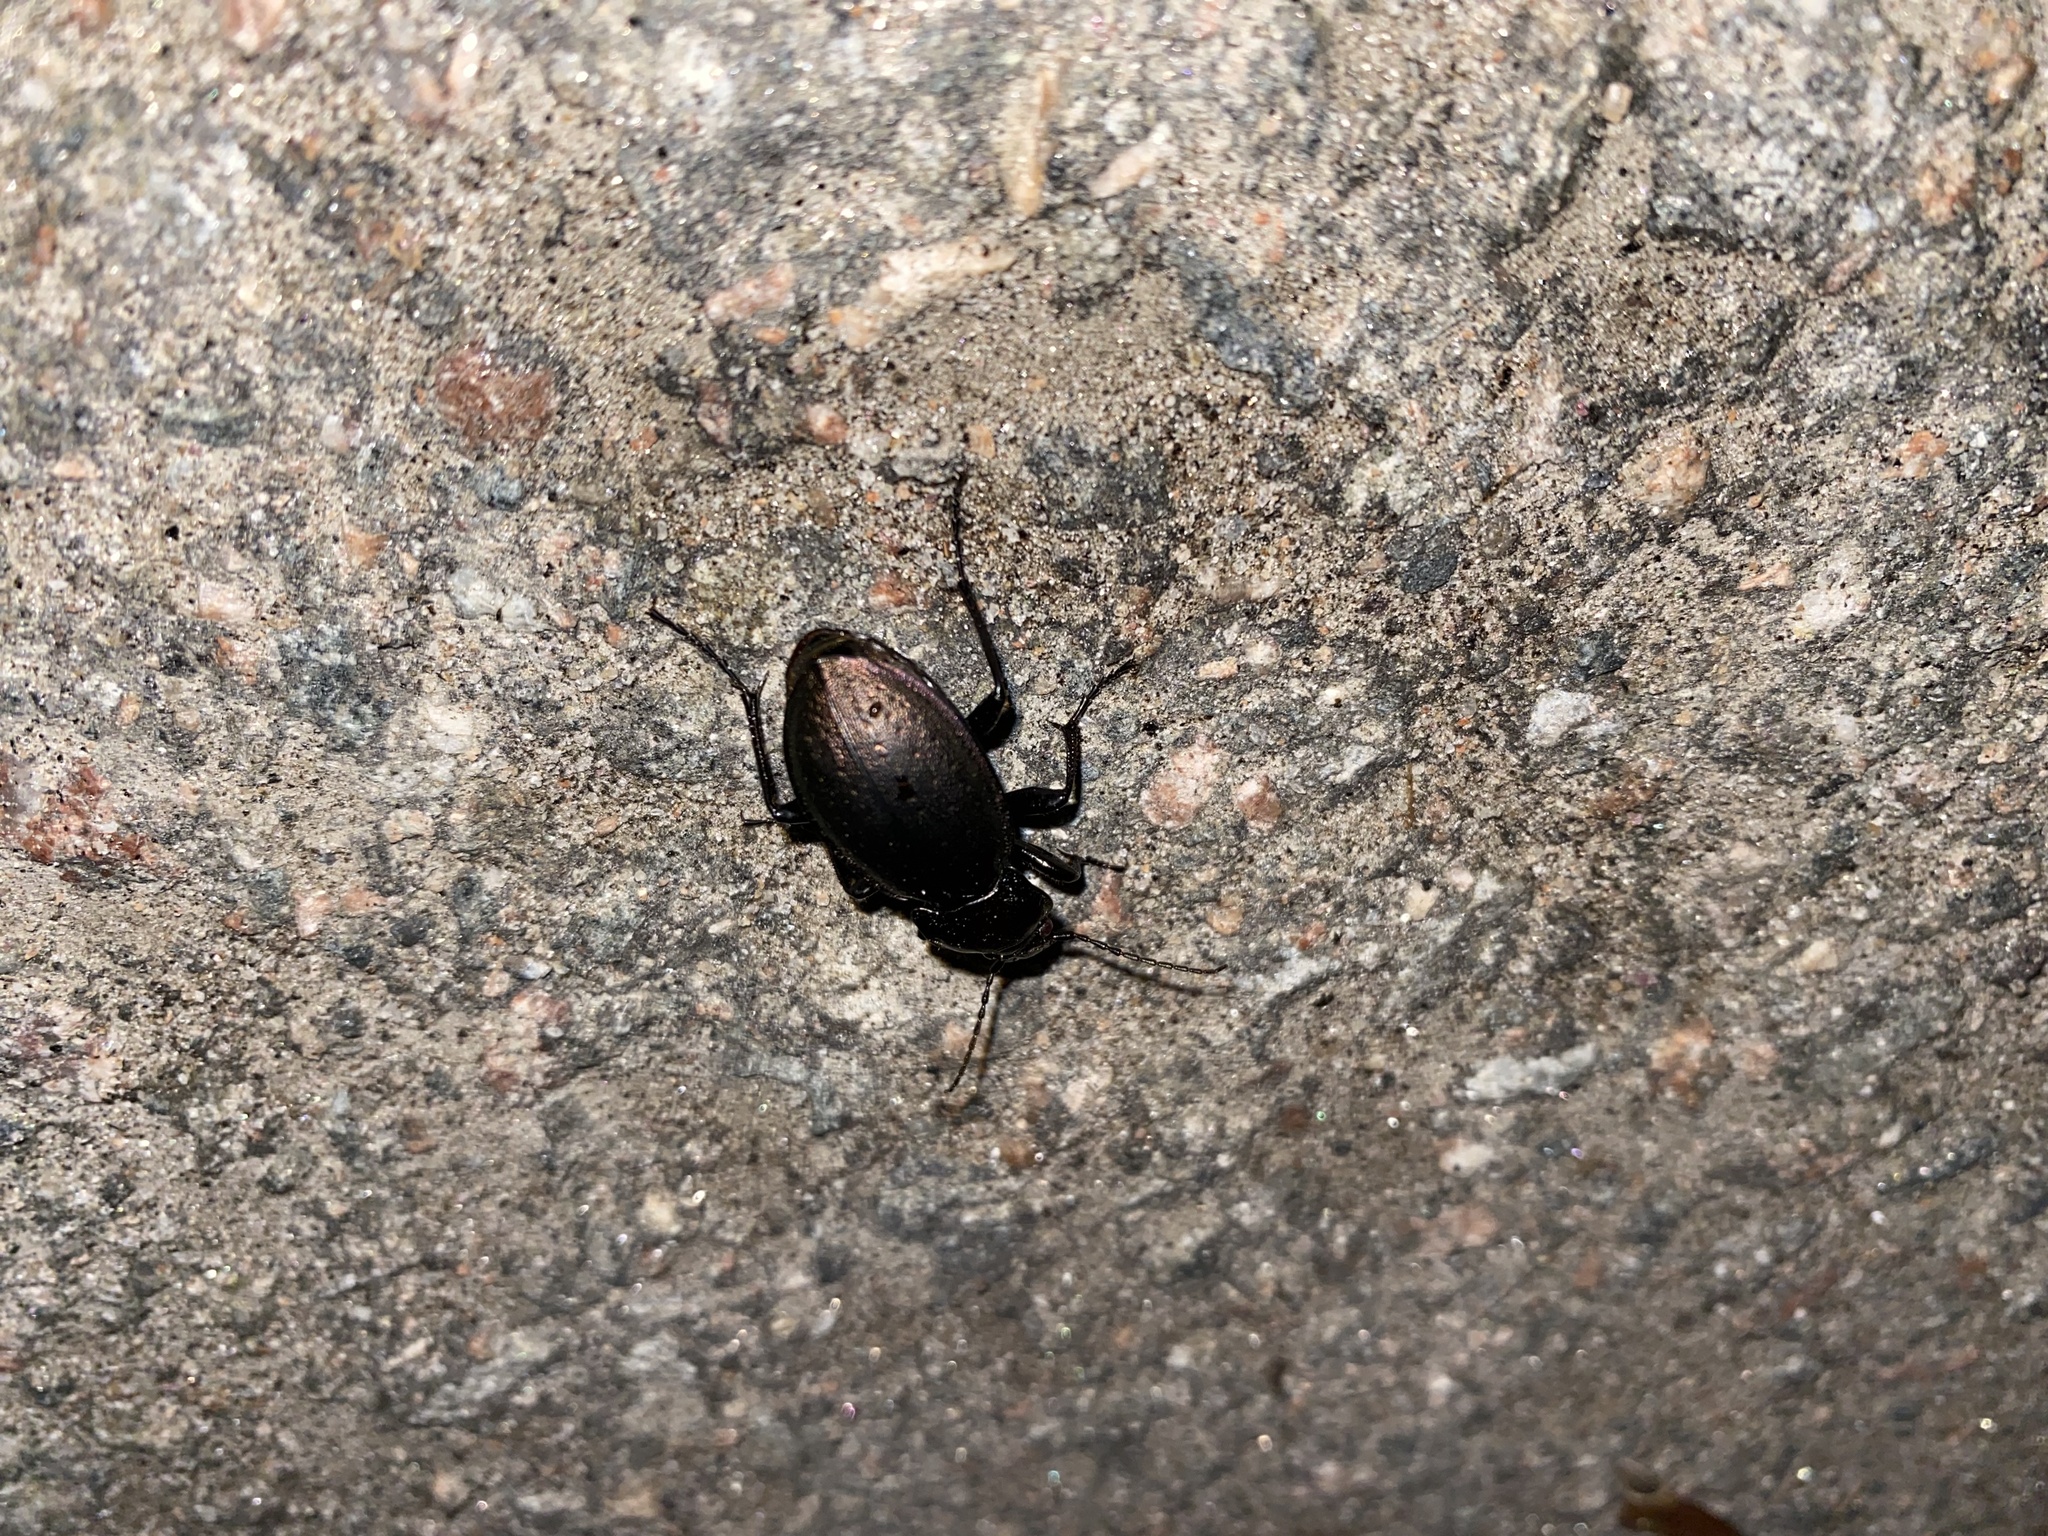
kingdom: Animalia
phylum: Arthropoda
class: Insecta
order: Coleoptera
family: Carabidae
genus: Carabus
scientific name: Carabus nemoralis
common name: European ground beetle
